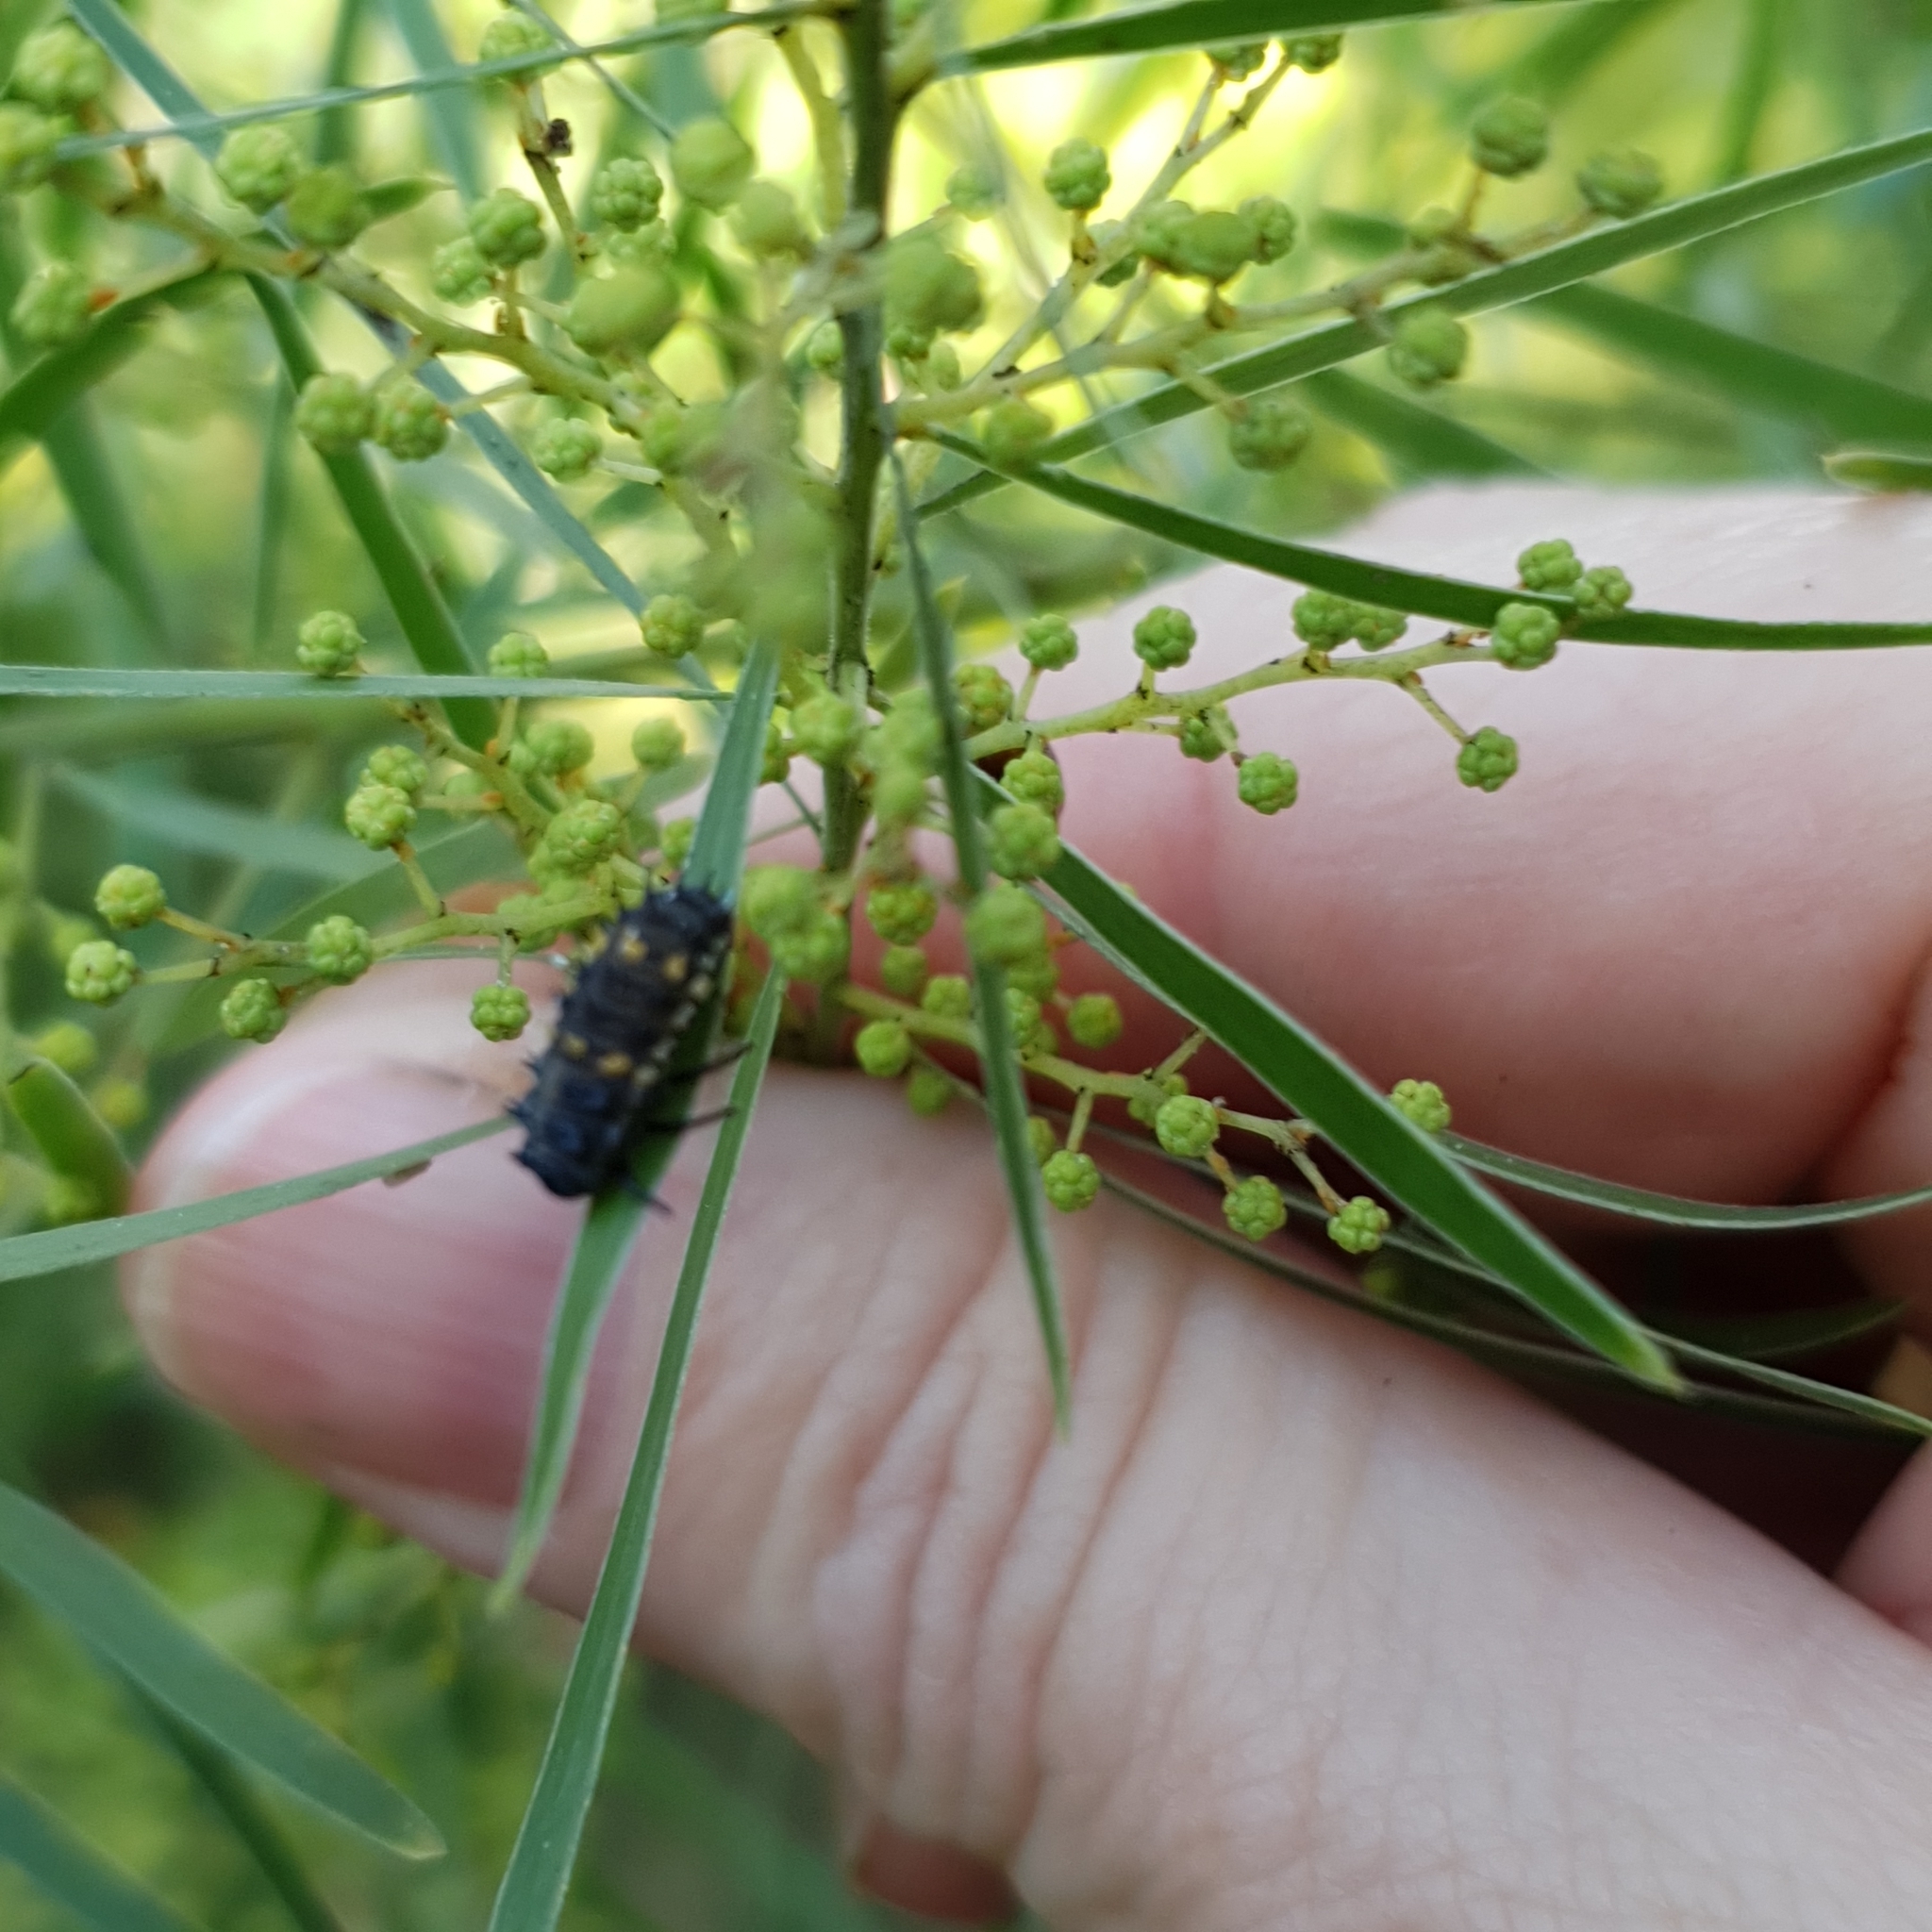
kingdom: Animalia
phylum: Arthropoda
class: Insecta
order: Coleoptera
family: Coccinellidae
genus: Harmonia
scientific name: Harmonia conformis
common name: Common spotted ladybird beetle
